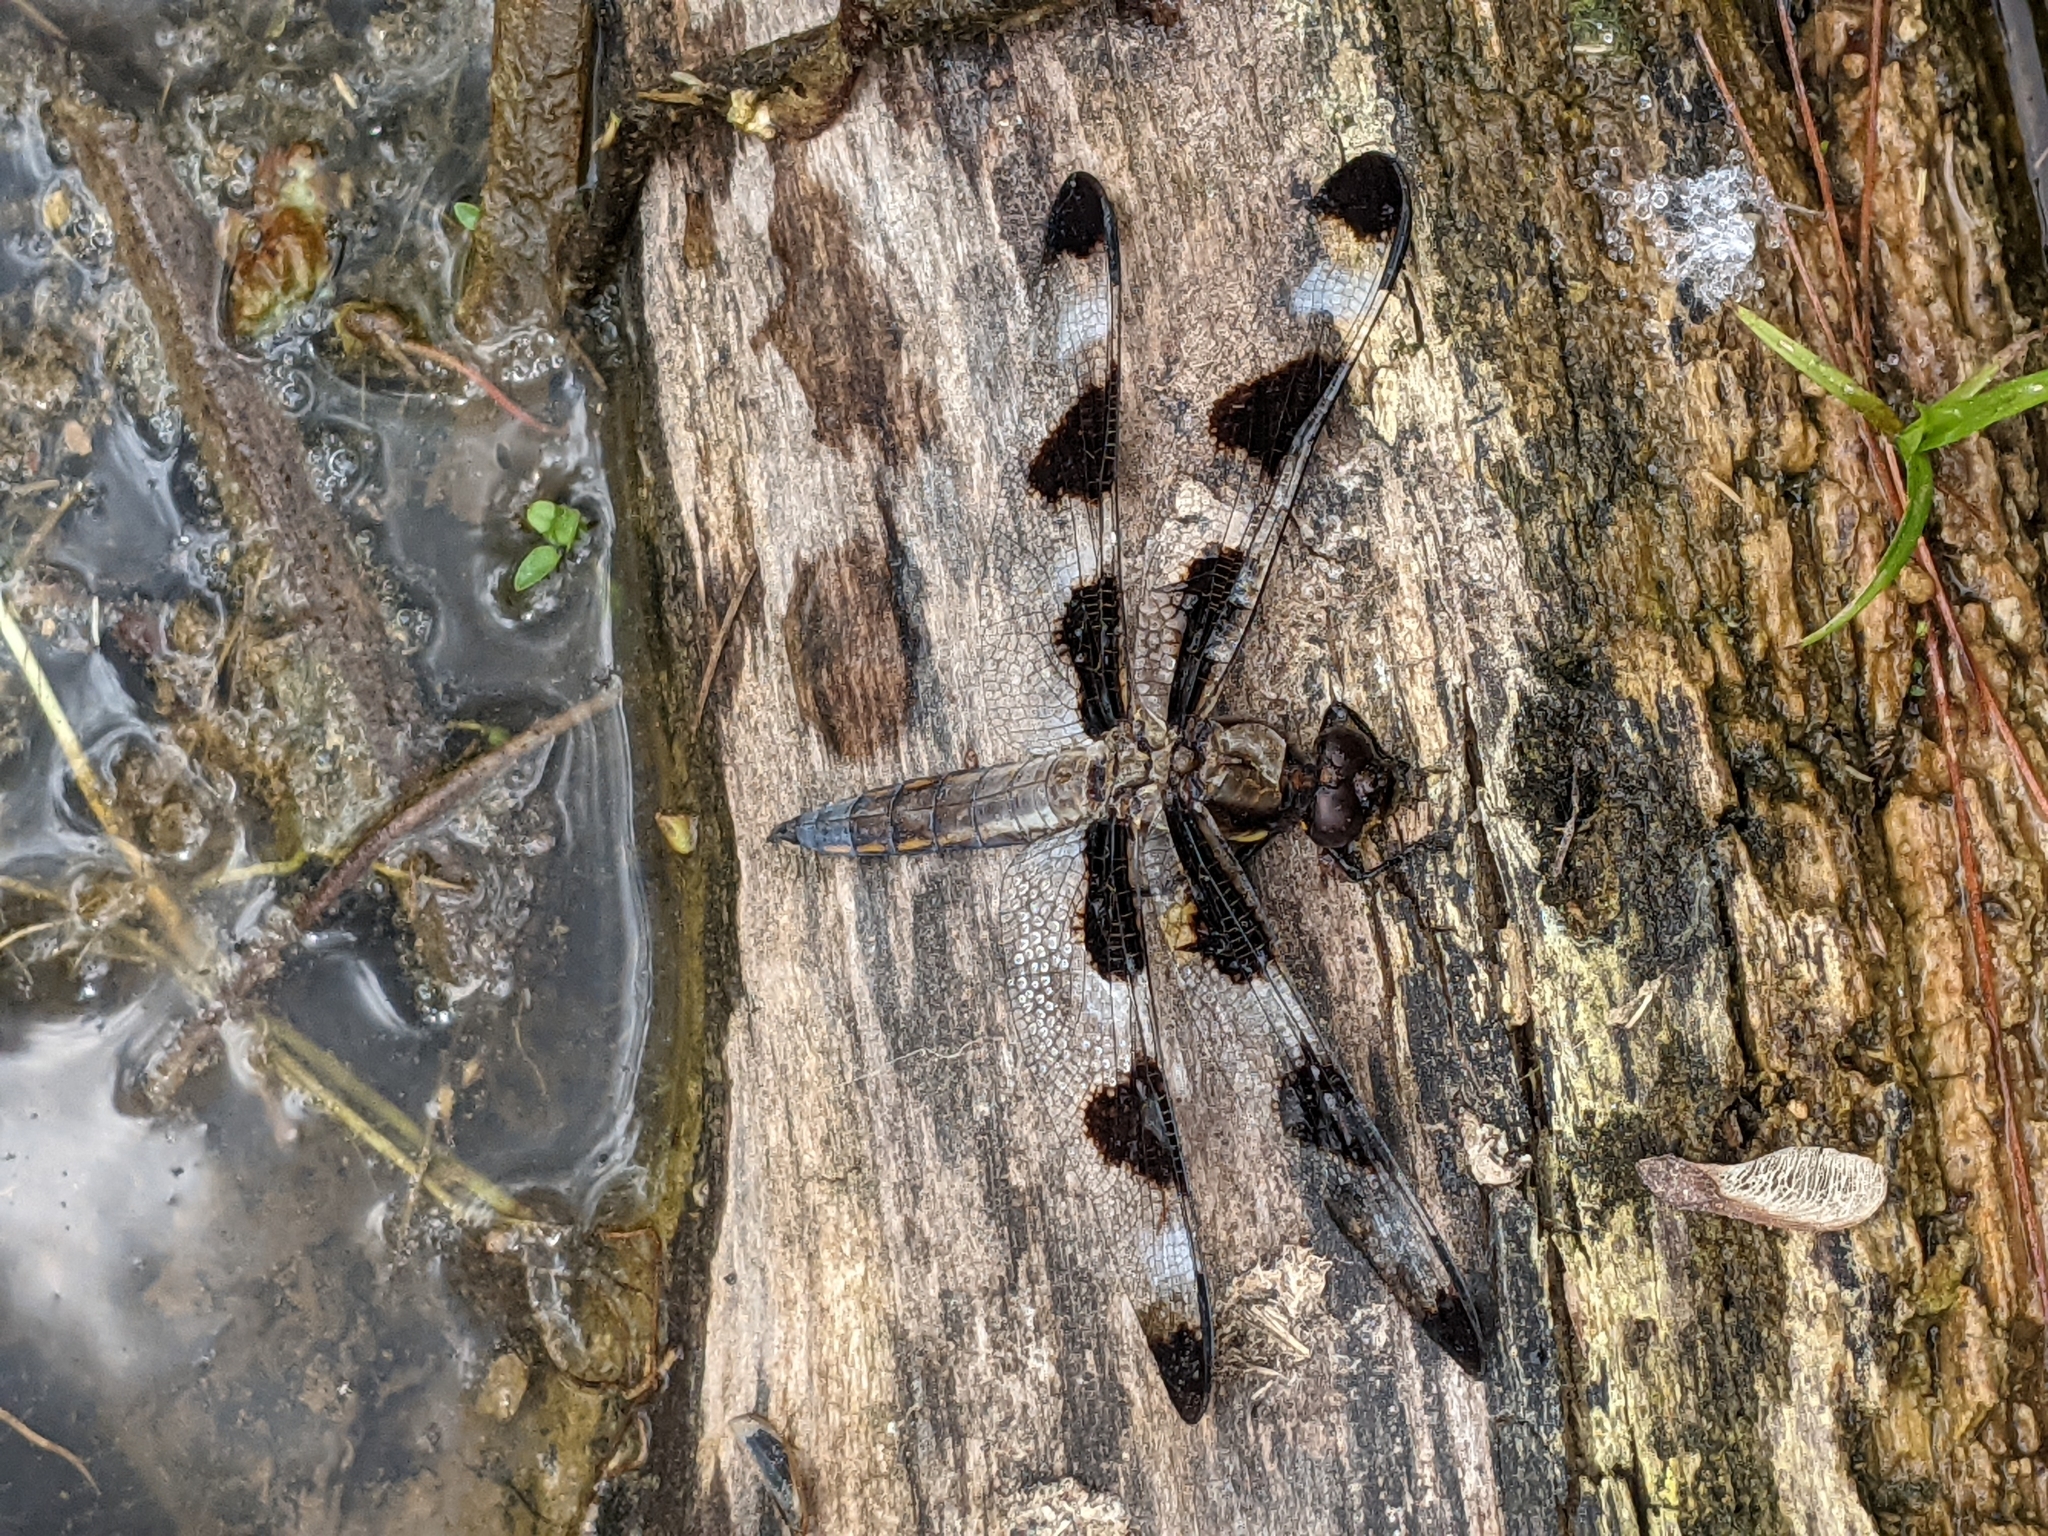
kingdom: Animalia
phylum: Arthropoda
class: Insecta
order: Odonata
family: Libellulidae
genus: Libellula
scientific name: Libellula pulchella
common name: Twelve-spotted skimmer
